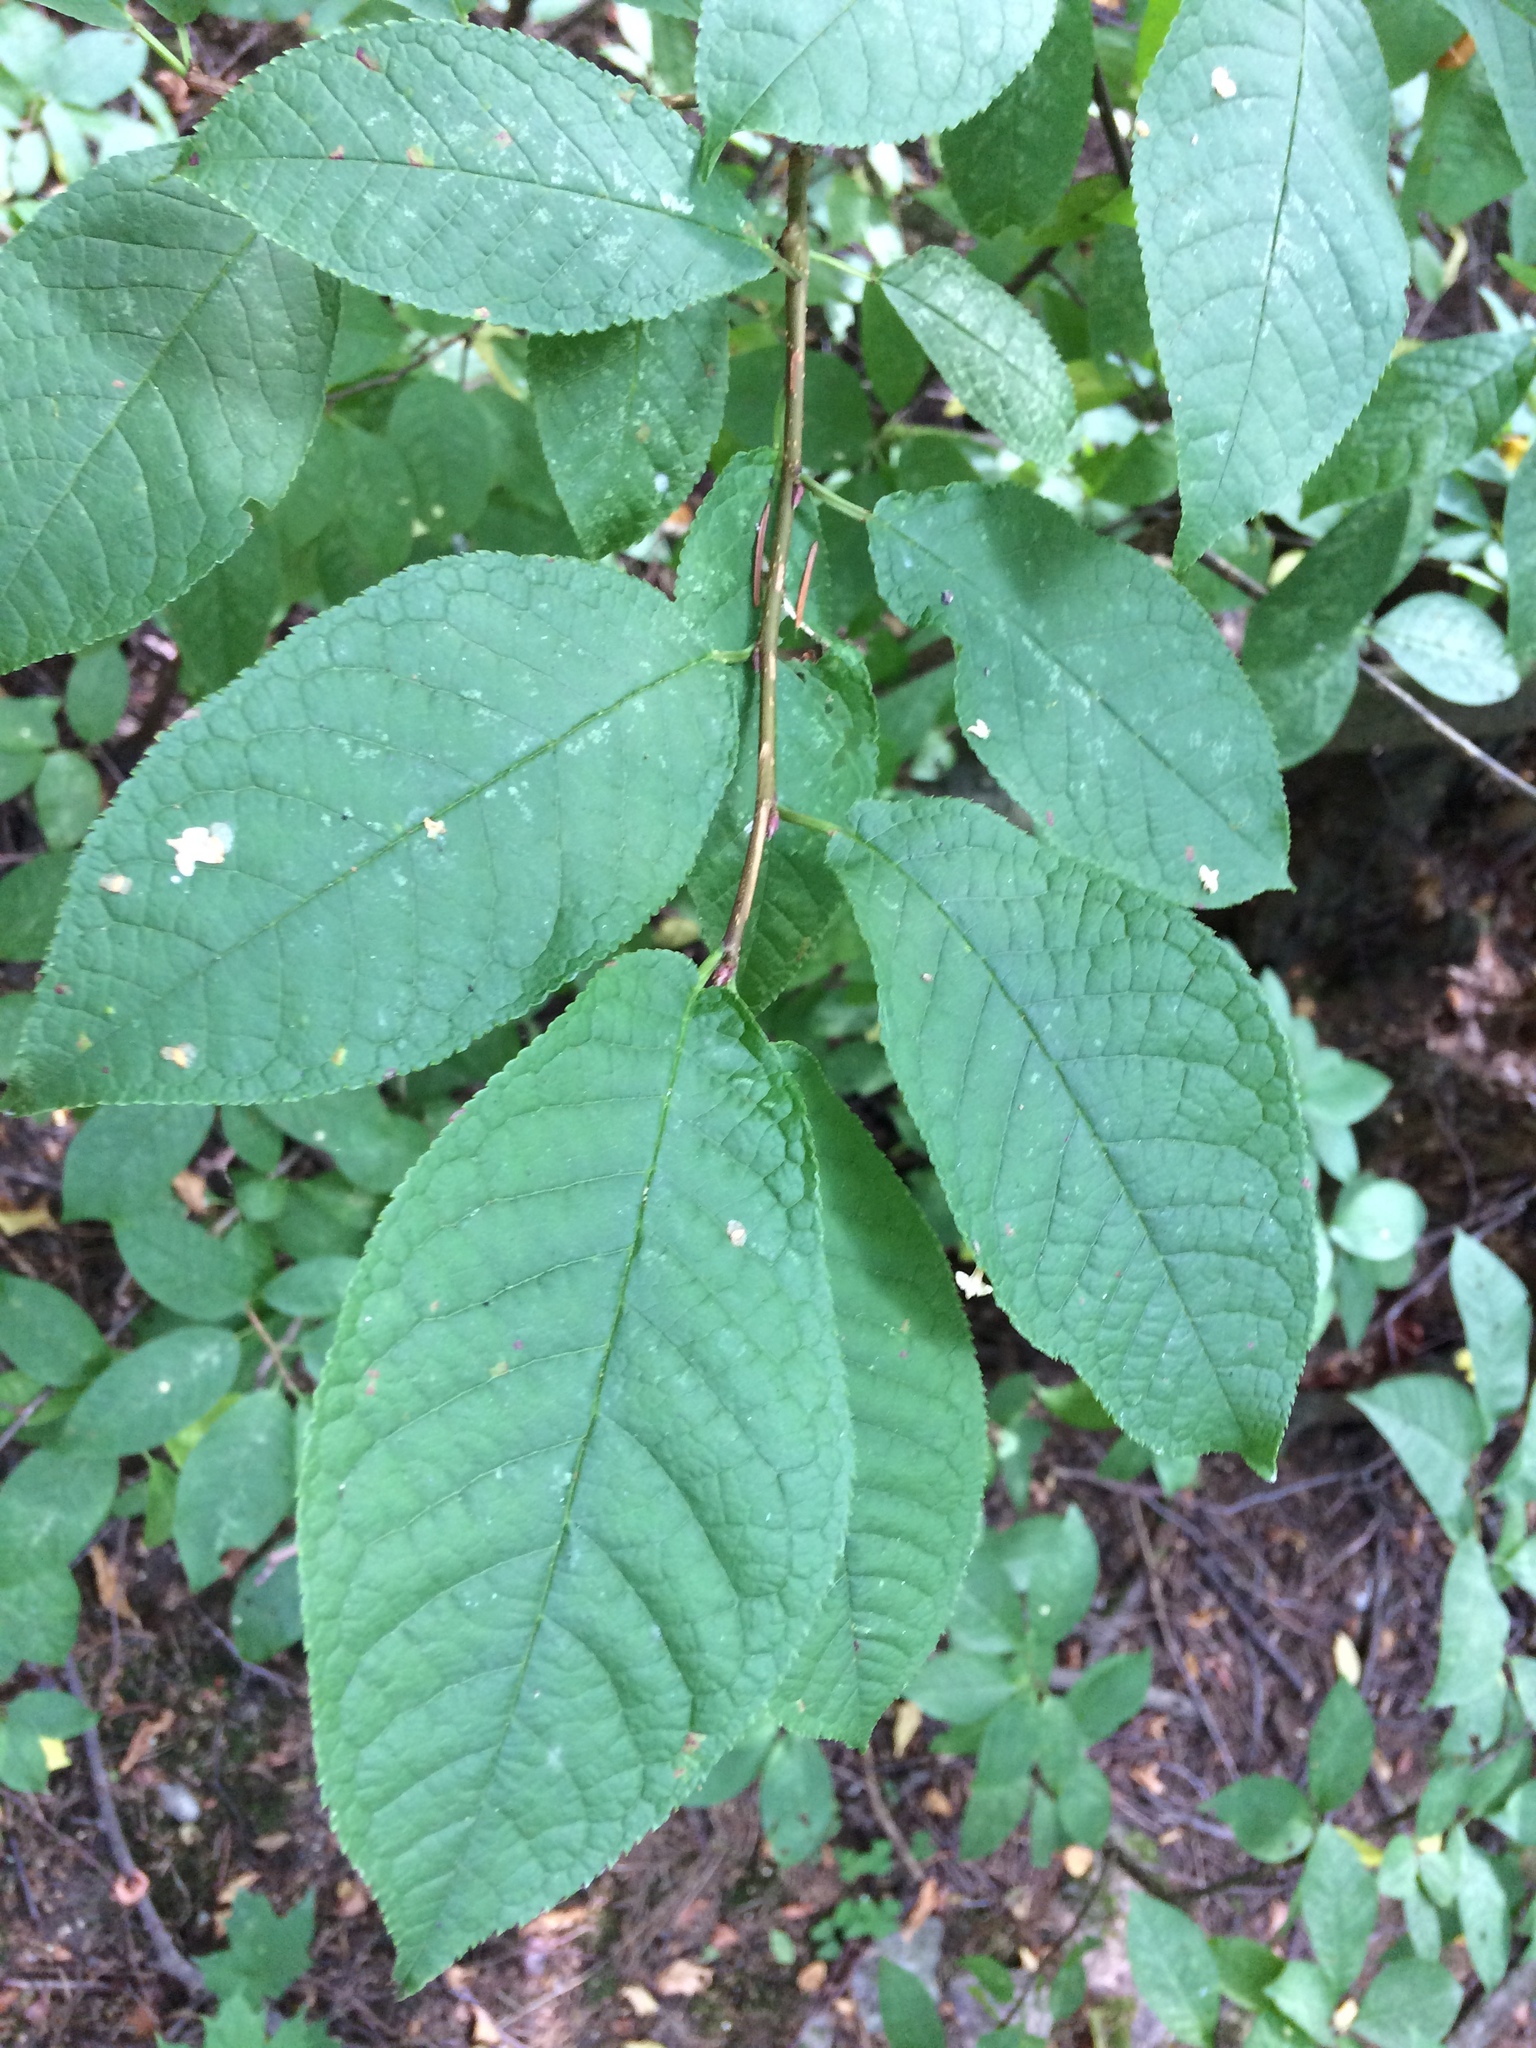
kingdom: Plantae
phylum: Tracheophyta
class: Magnoliopsida
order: Rosales
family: Rosaceae
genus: Prunus
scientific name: Prunus padus
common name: Bird cherry
